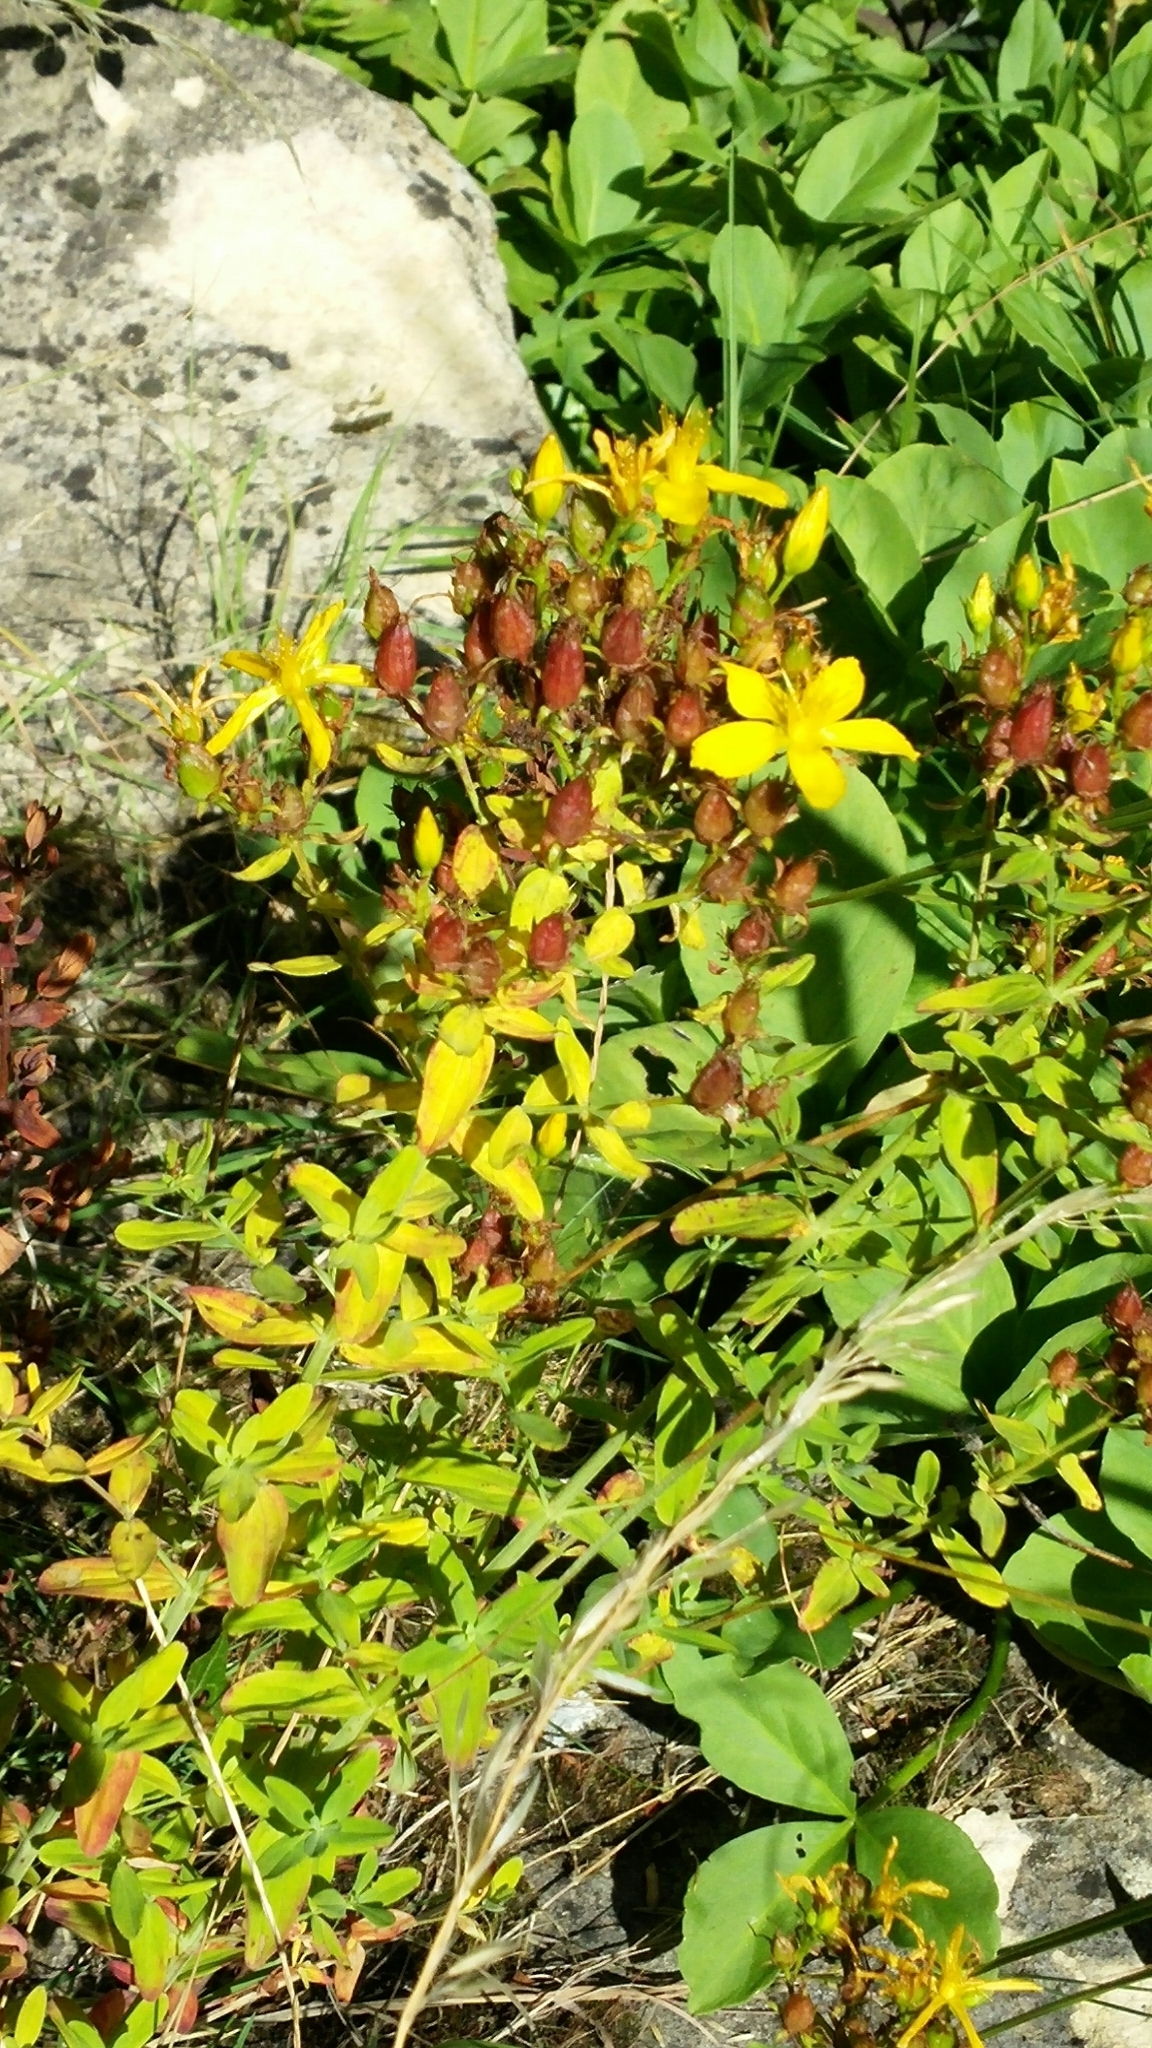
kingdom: Plantae
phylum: Tracheophyta
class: Magnoliopsida
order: Malpighiales
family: Hypericaceae
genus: Hypericum
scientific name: Hypericum
